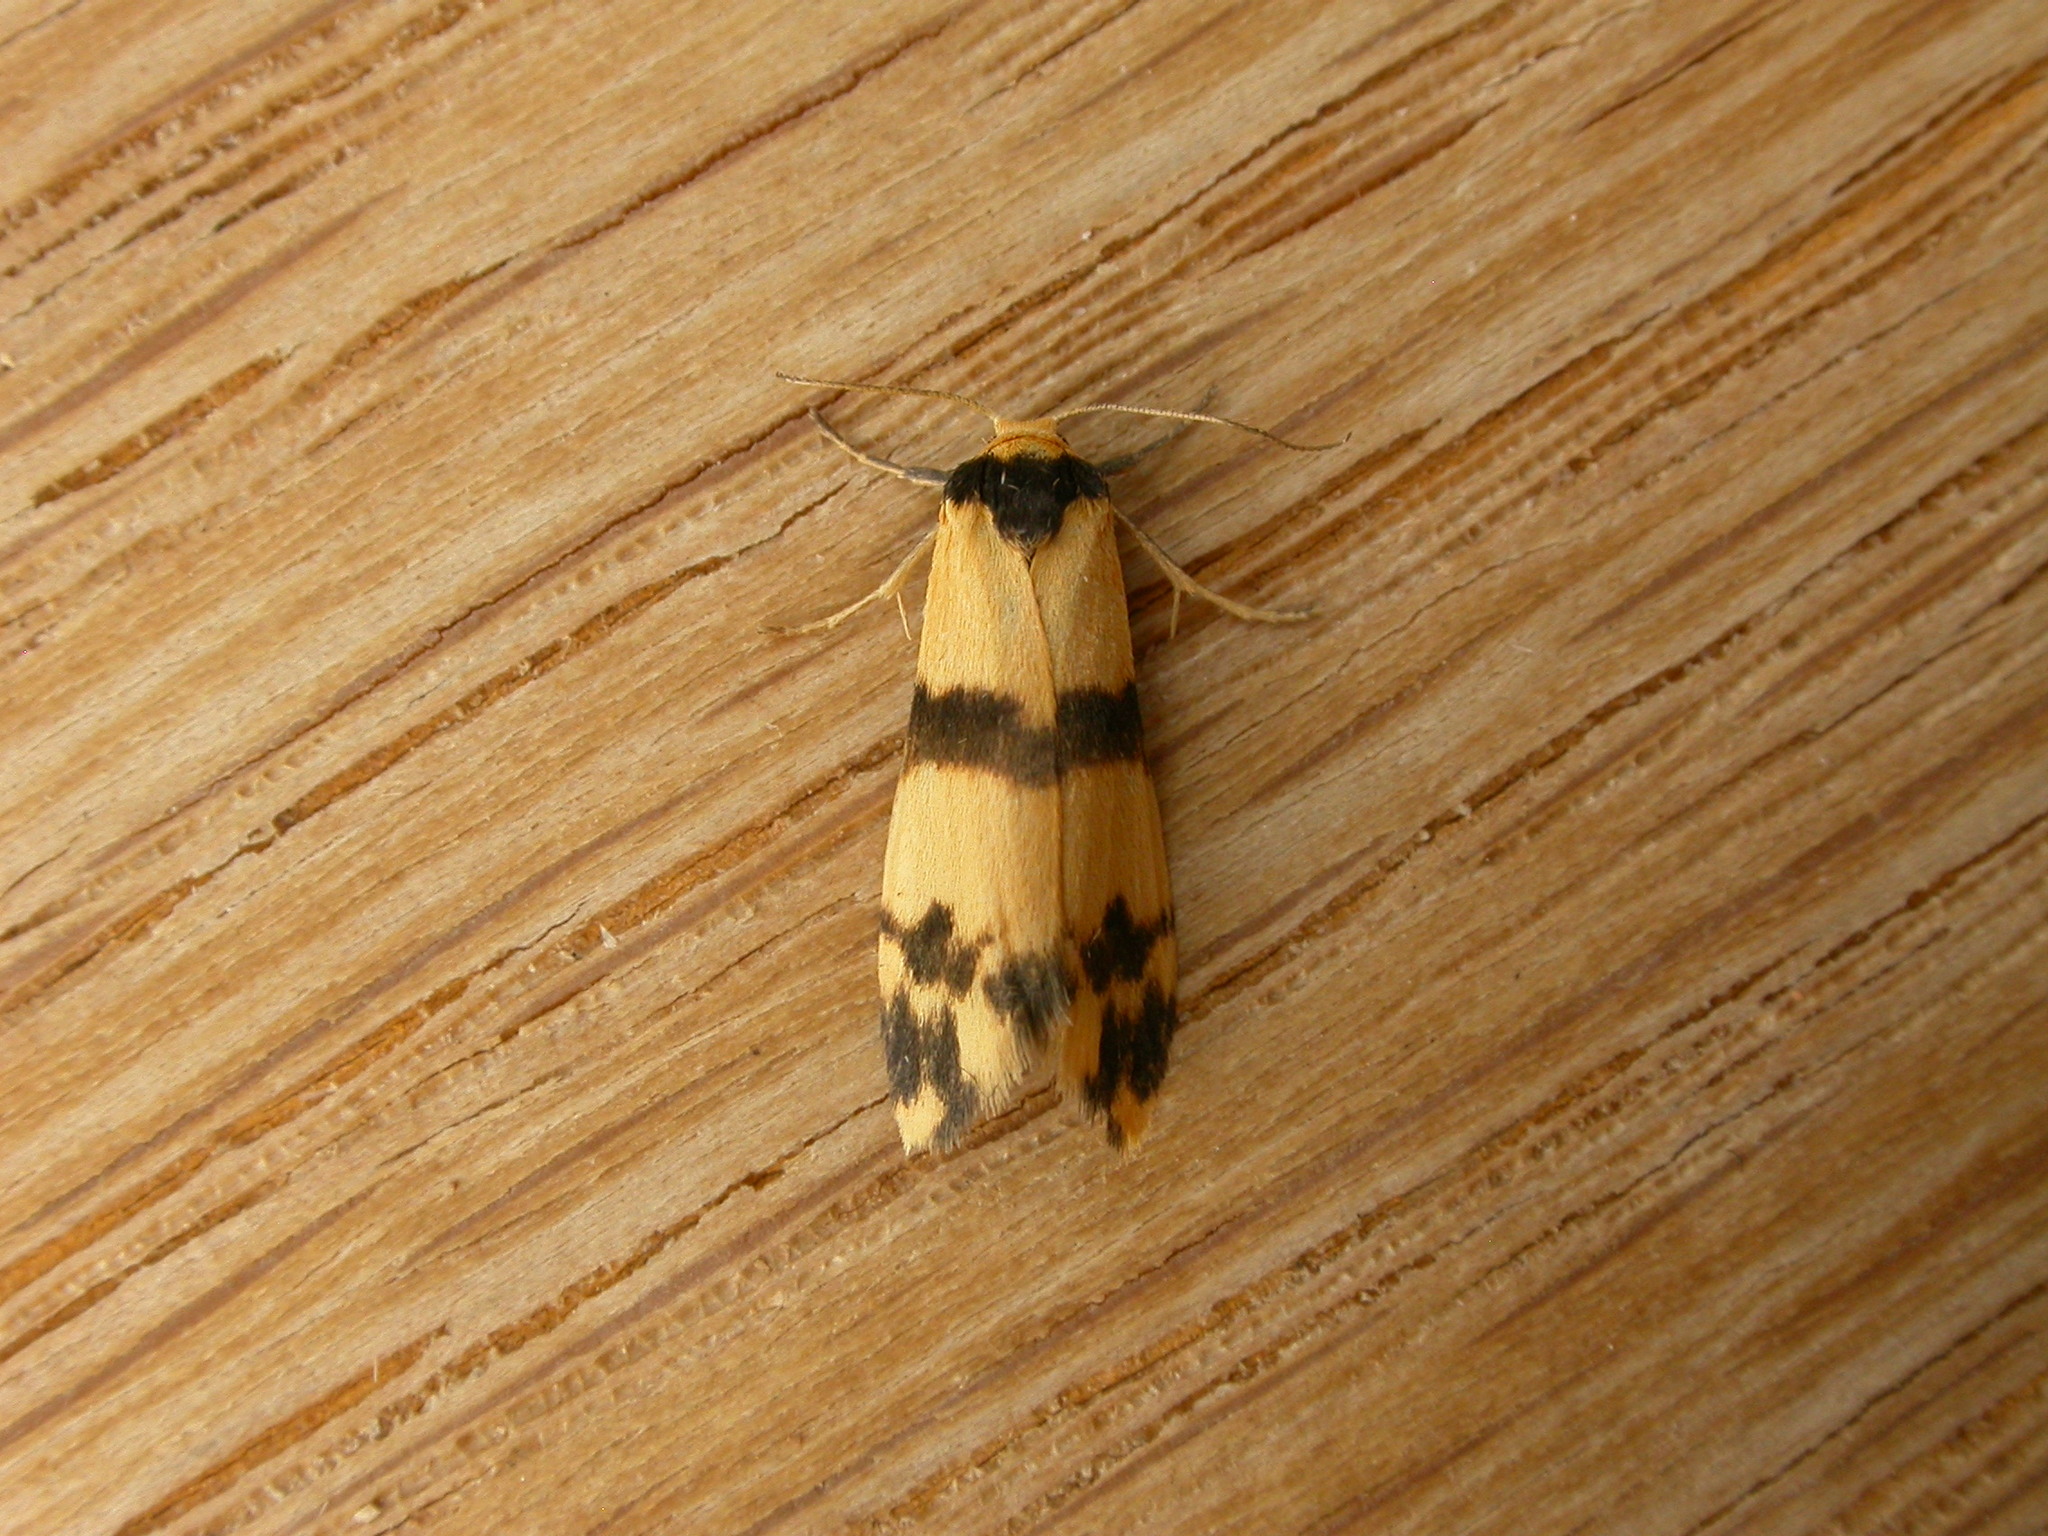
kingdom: Animalia
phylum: Arthropoda
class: Insecta
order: Lepidoptera
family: Erebidae
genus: Thallarcha
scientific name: Thallarcha chrysochares
